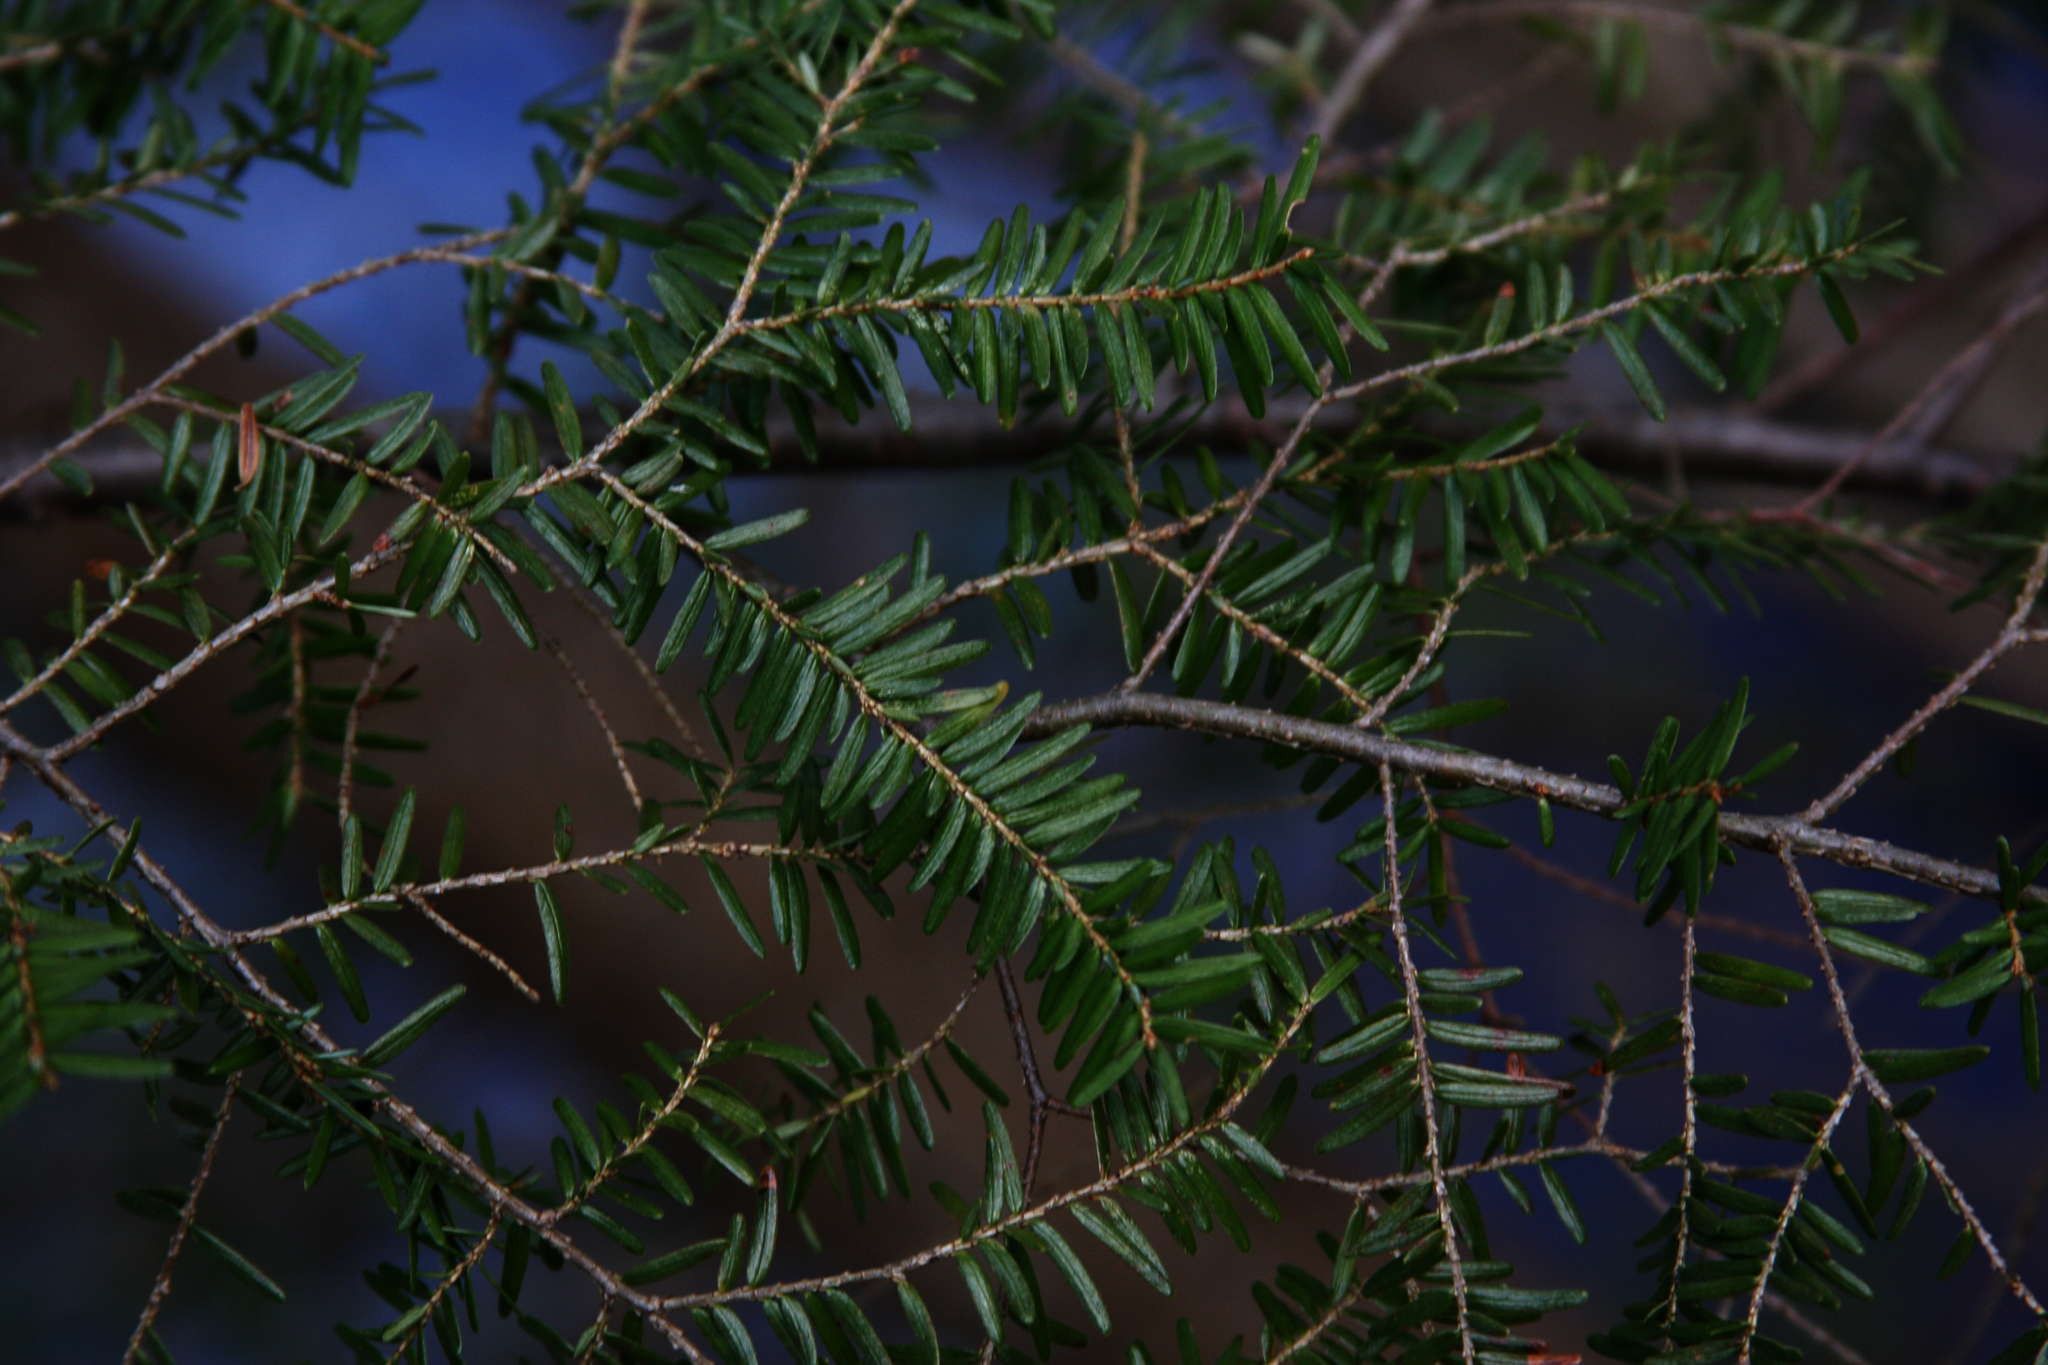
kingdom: Plantae
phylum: Tracheophyta
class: Pinopsida
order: Pinales
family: Pinaceae
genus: Tsuga
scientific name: Tsuga canadensis
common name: Eastern hemlock
